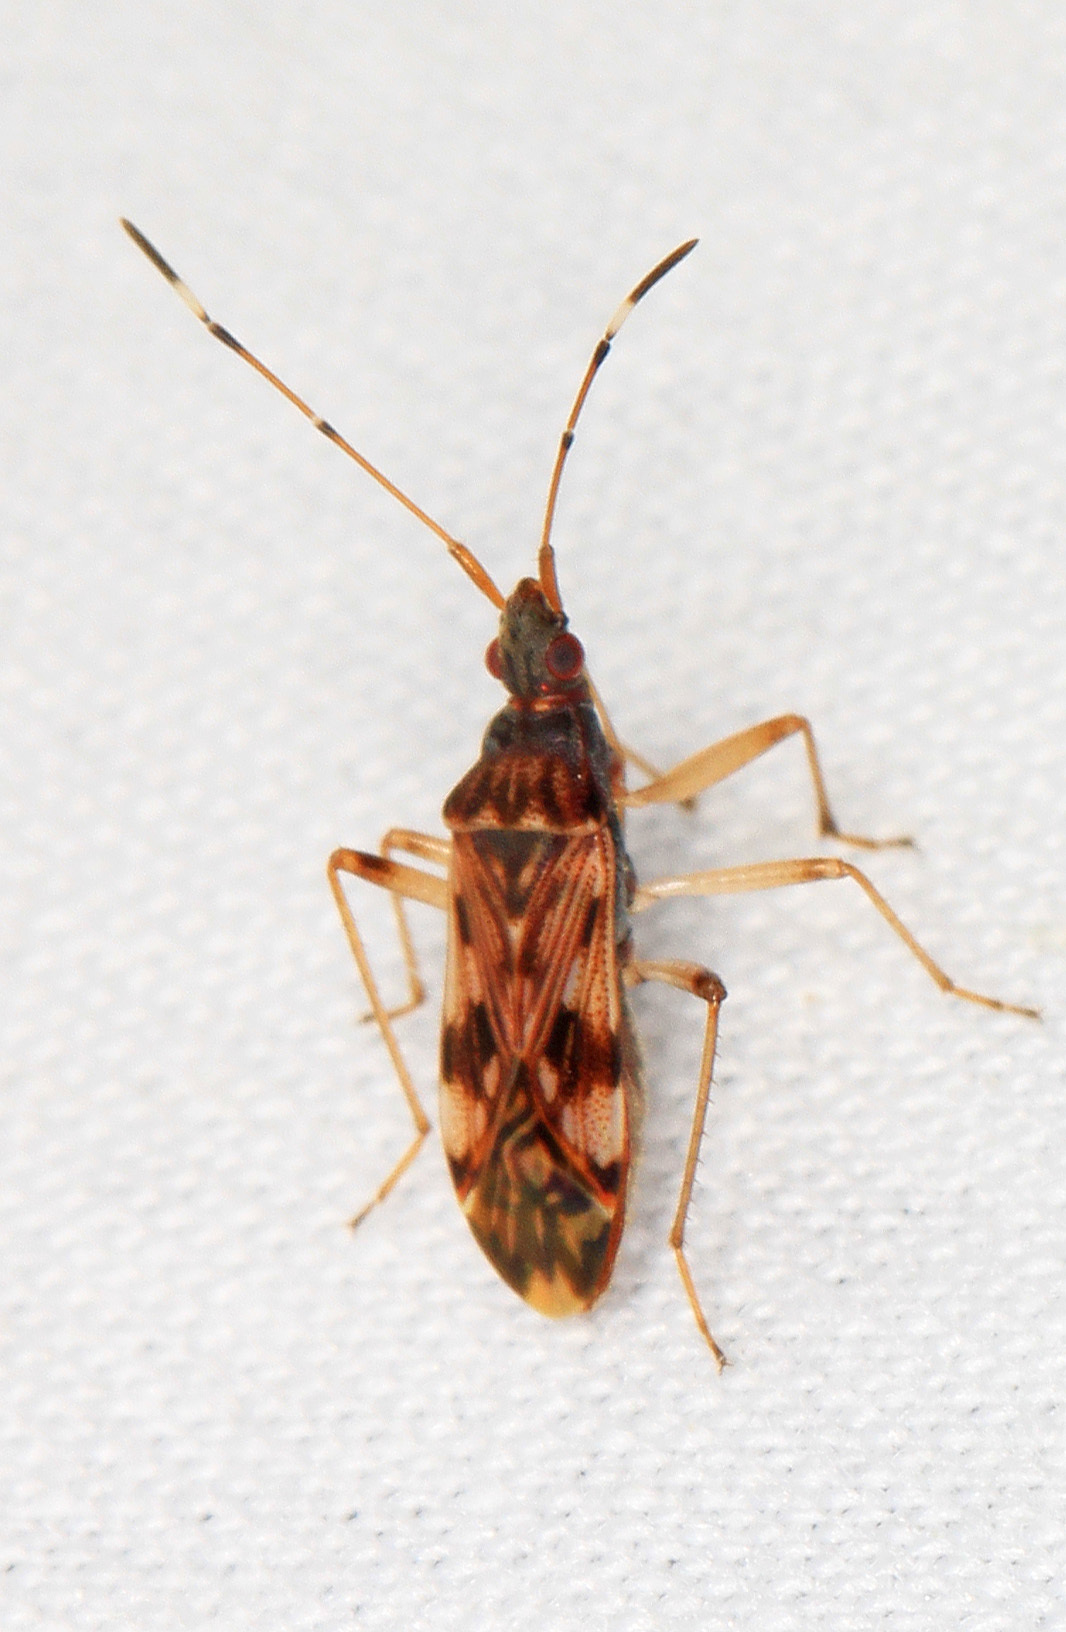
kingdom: Animalia
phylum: Arthropoda
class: Insecta
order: Hemiptera
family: Rhyparochromidae
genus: Ozophora
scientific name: Ozophora picturata
